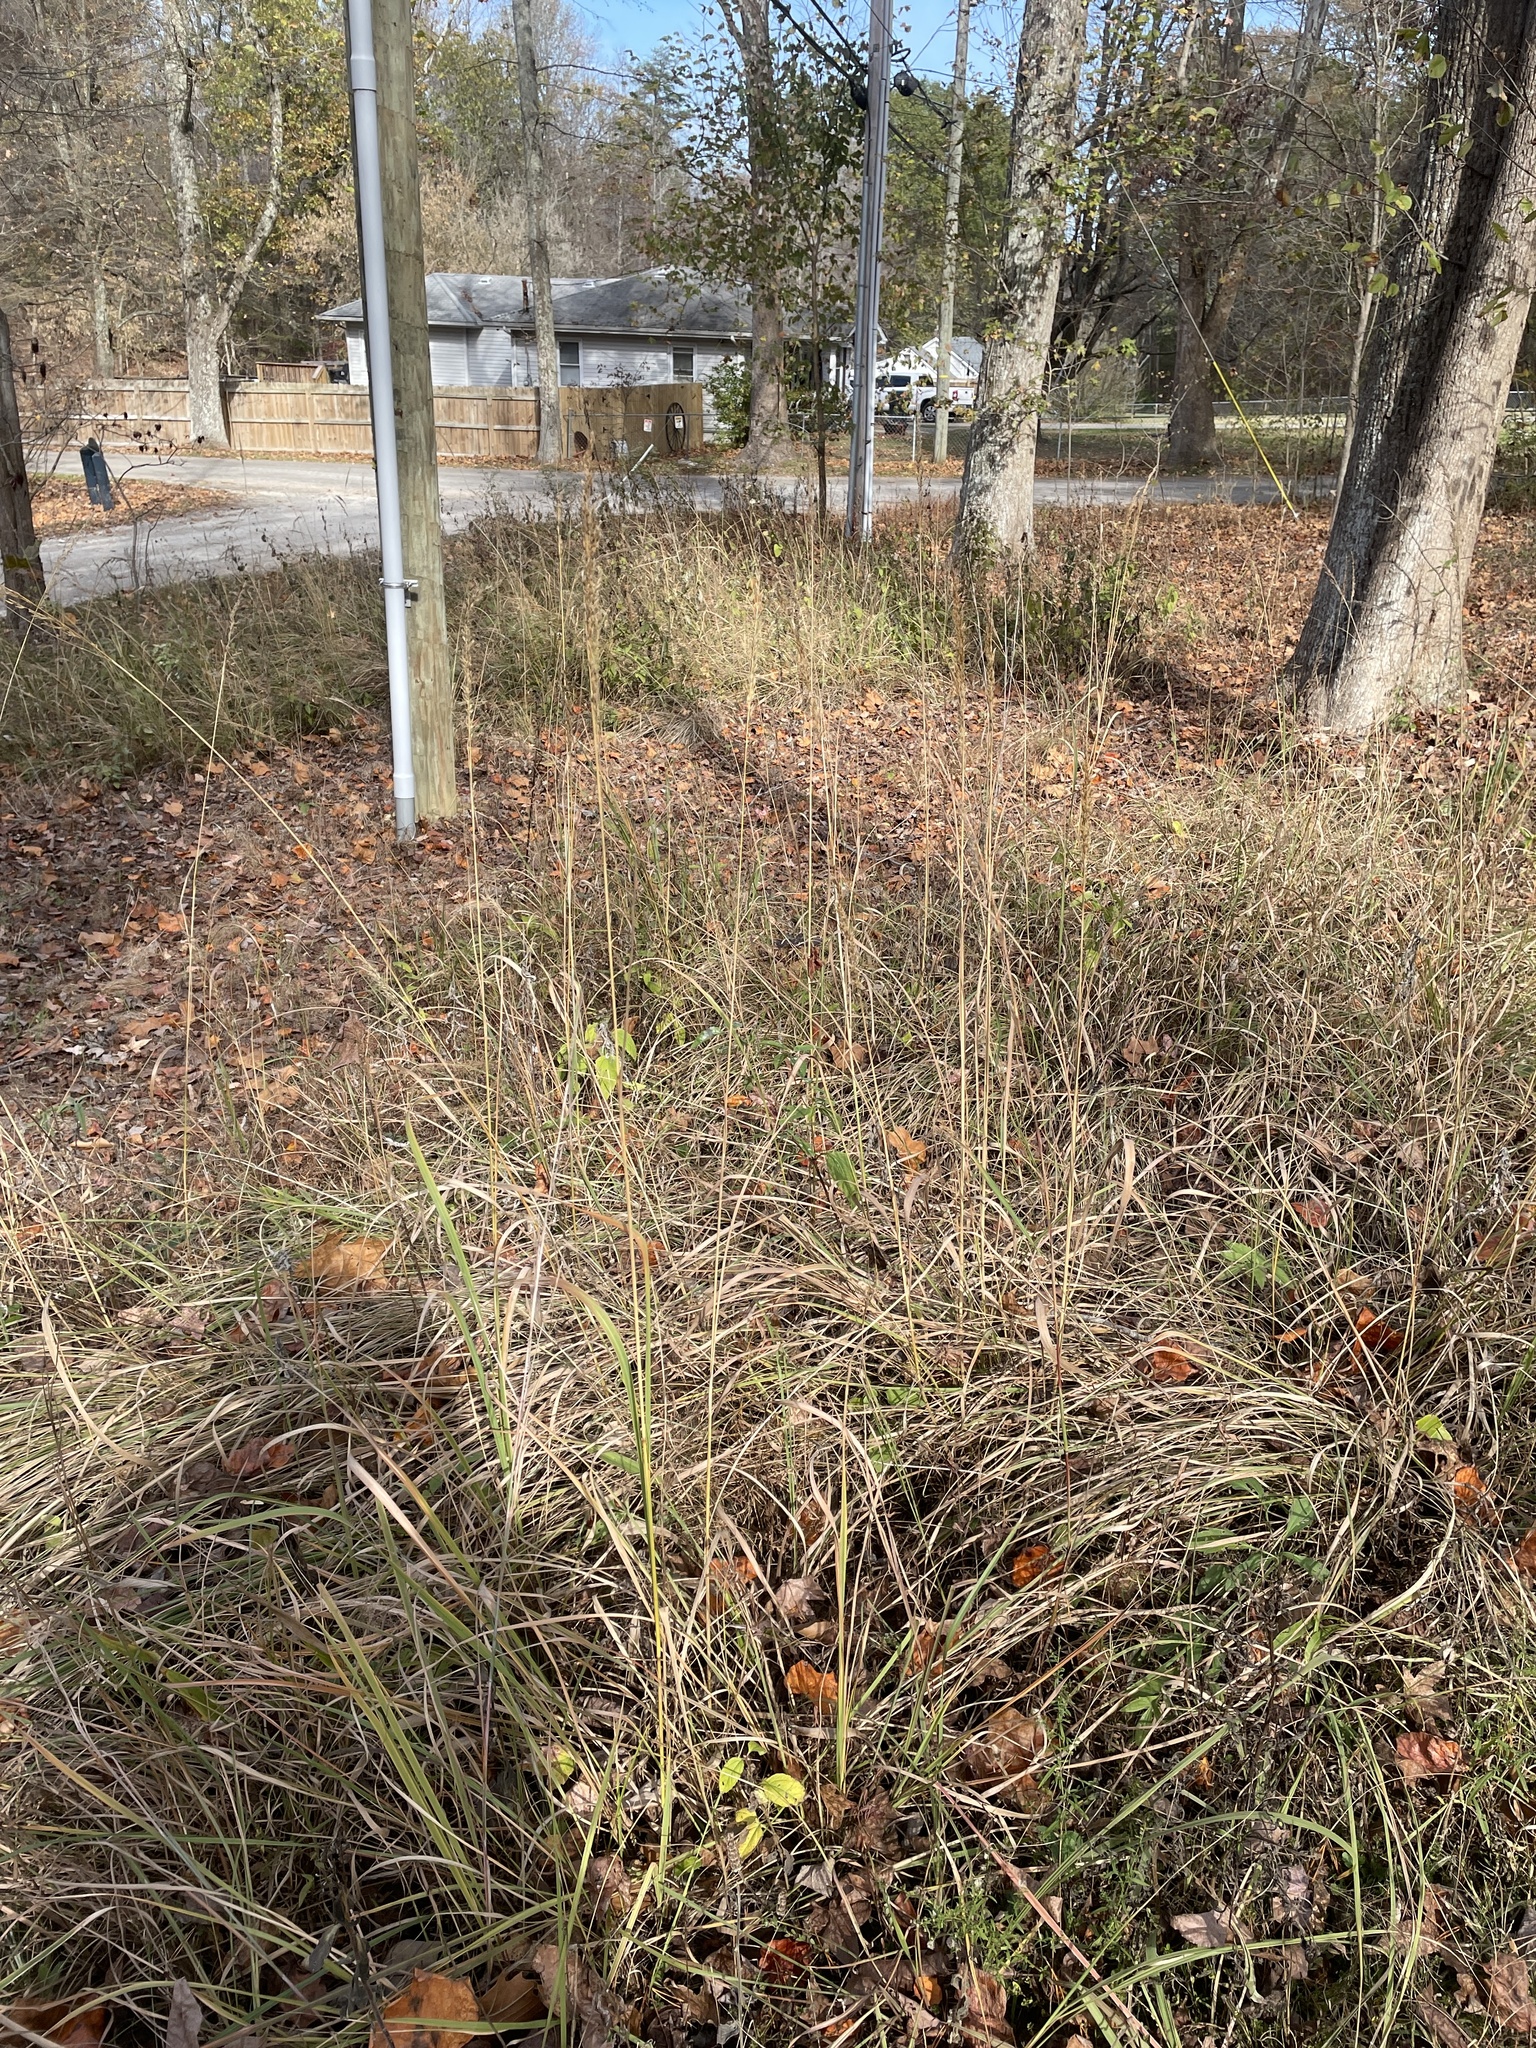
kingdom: Plantae
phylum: Tracheophyta
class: Liliopsida
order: Poales
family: Poaceae
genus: Sorghastrum
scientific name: Sorghastrum nutans
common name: Indian grass
